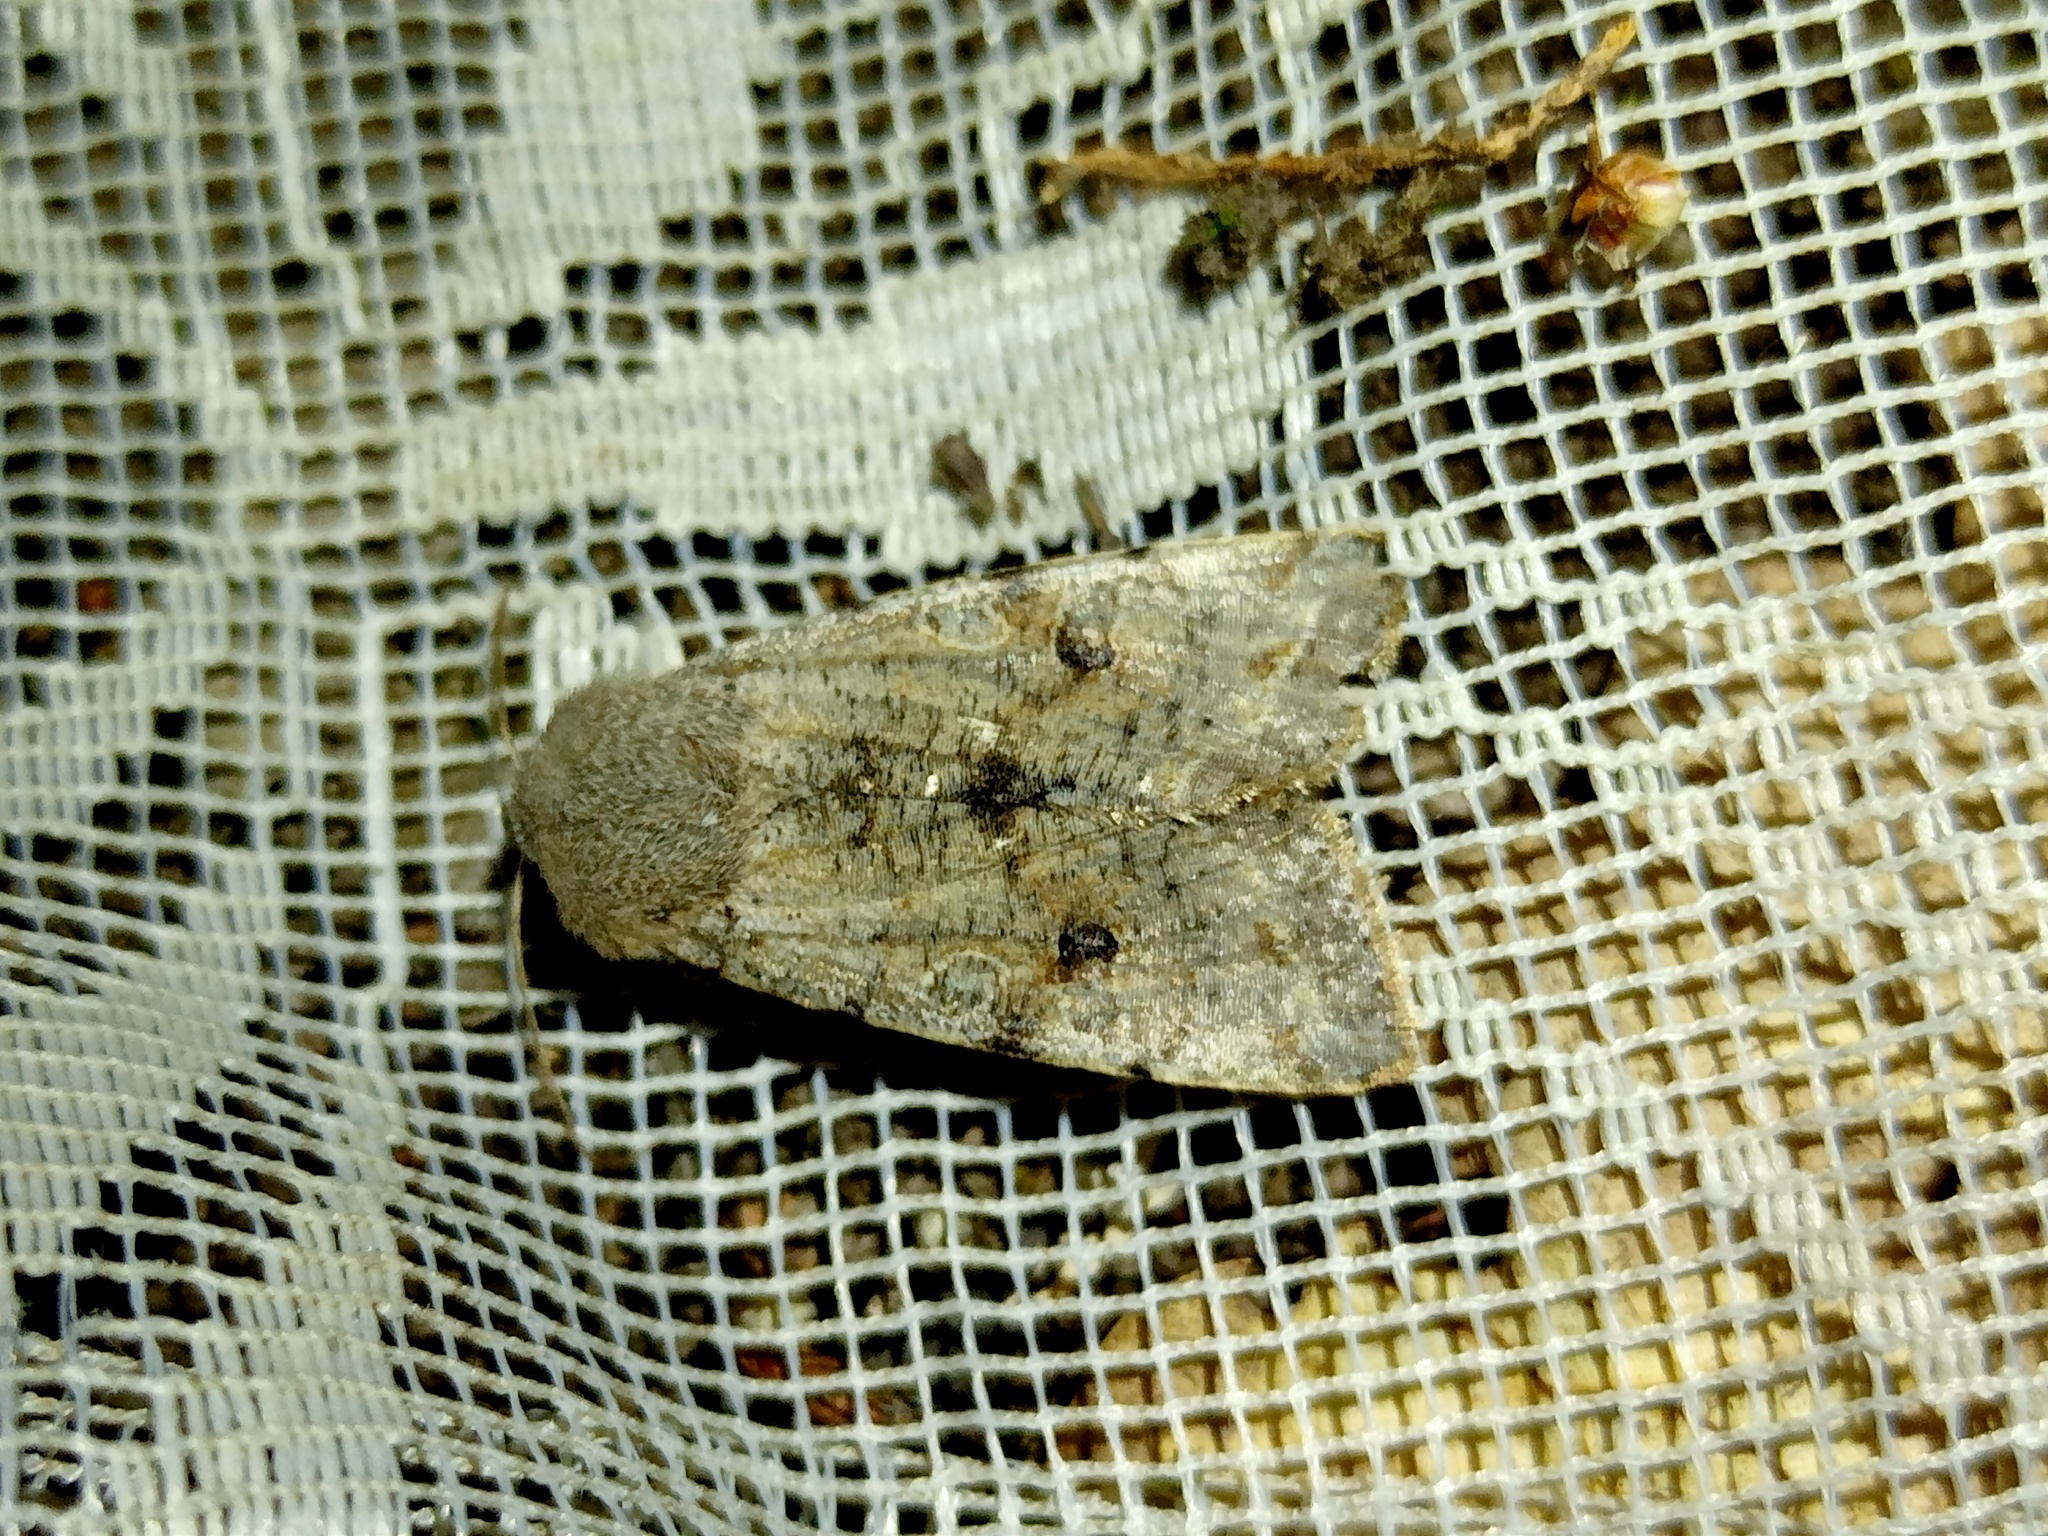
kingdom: Animalia
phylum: Arthropoda
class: Insecta
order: Lepidoptera
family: Noctuidae
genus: Orthosia
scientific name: Orthosia incerta
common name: Clouded drab
